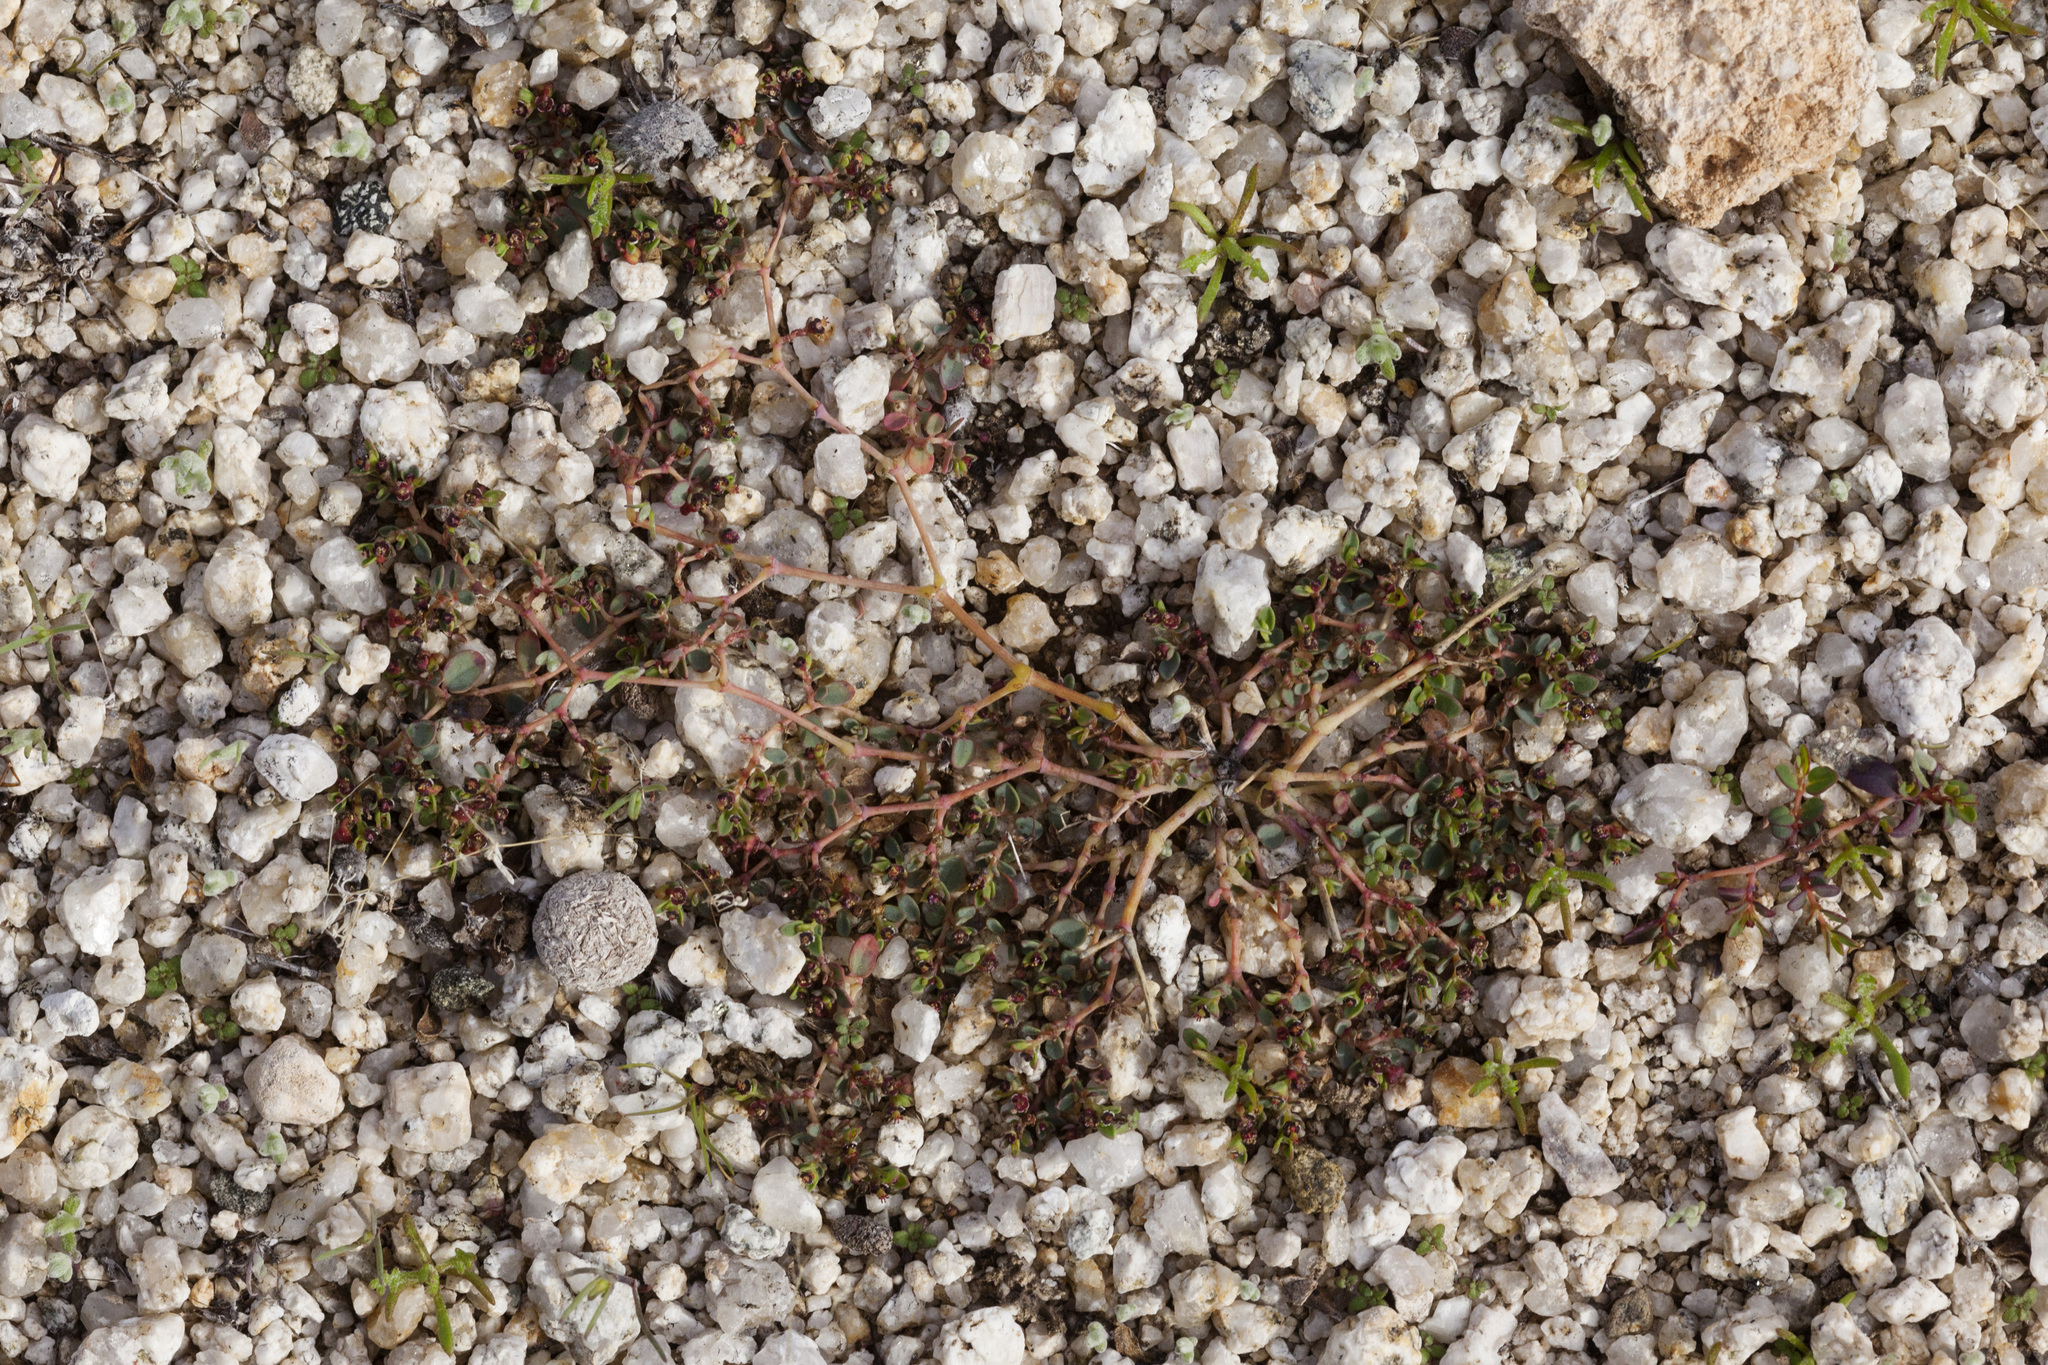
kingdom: Plantae
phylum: Tracheophyta
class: Magnoliopsida
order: Malpighiales
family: Euphorbiaceae
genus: Euphorbia
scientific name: Euphorbia polycarpa
